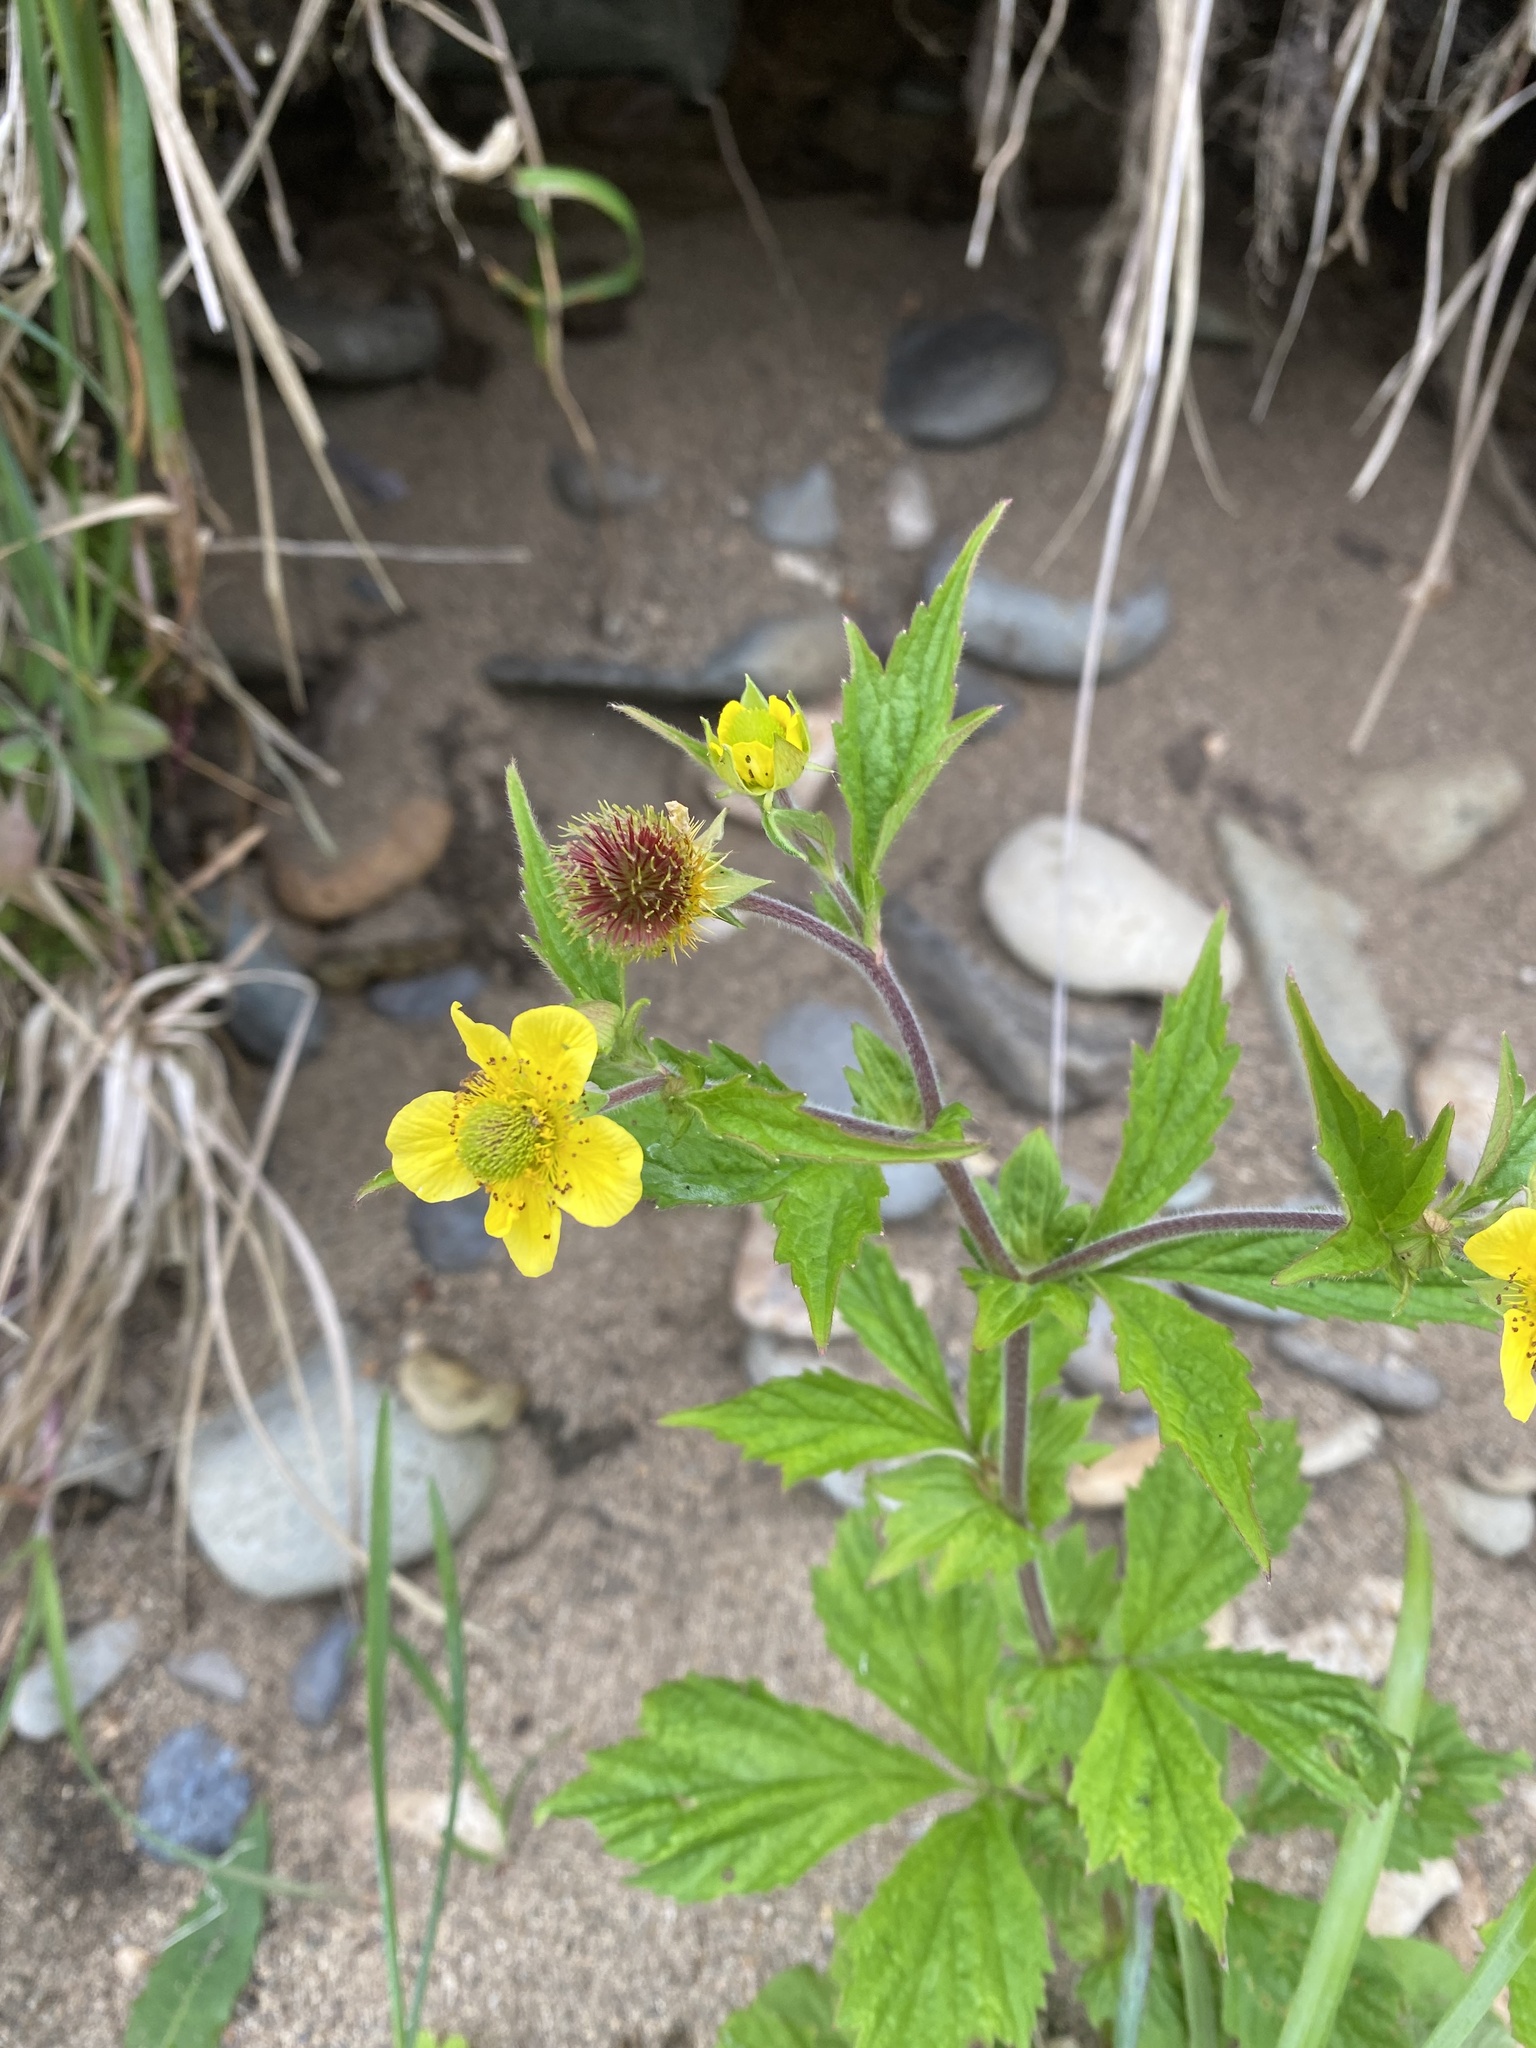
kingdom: Plantae
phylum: Tracheophyta
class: Magnoliopsida
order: Rosales
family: Rosaceae
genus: Geum
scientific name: Geum aleppicum
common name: Yellow avens
